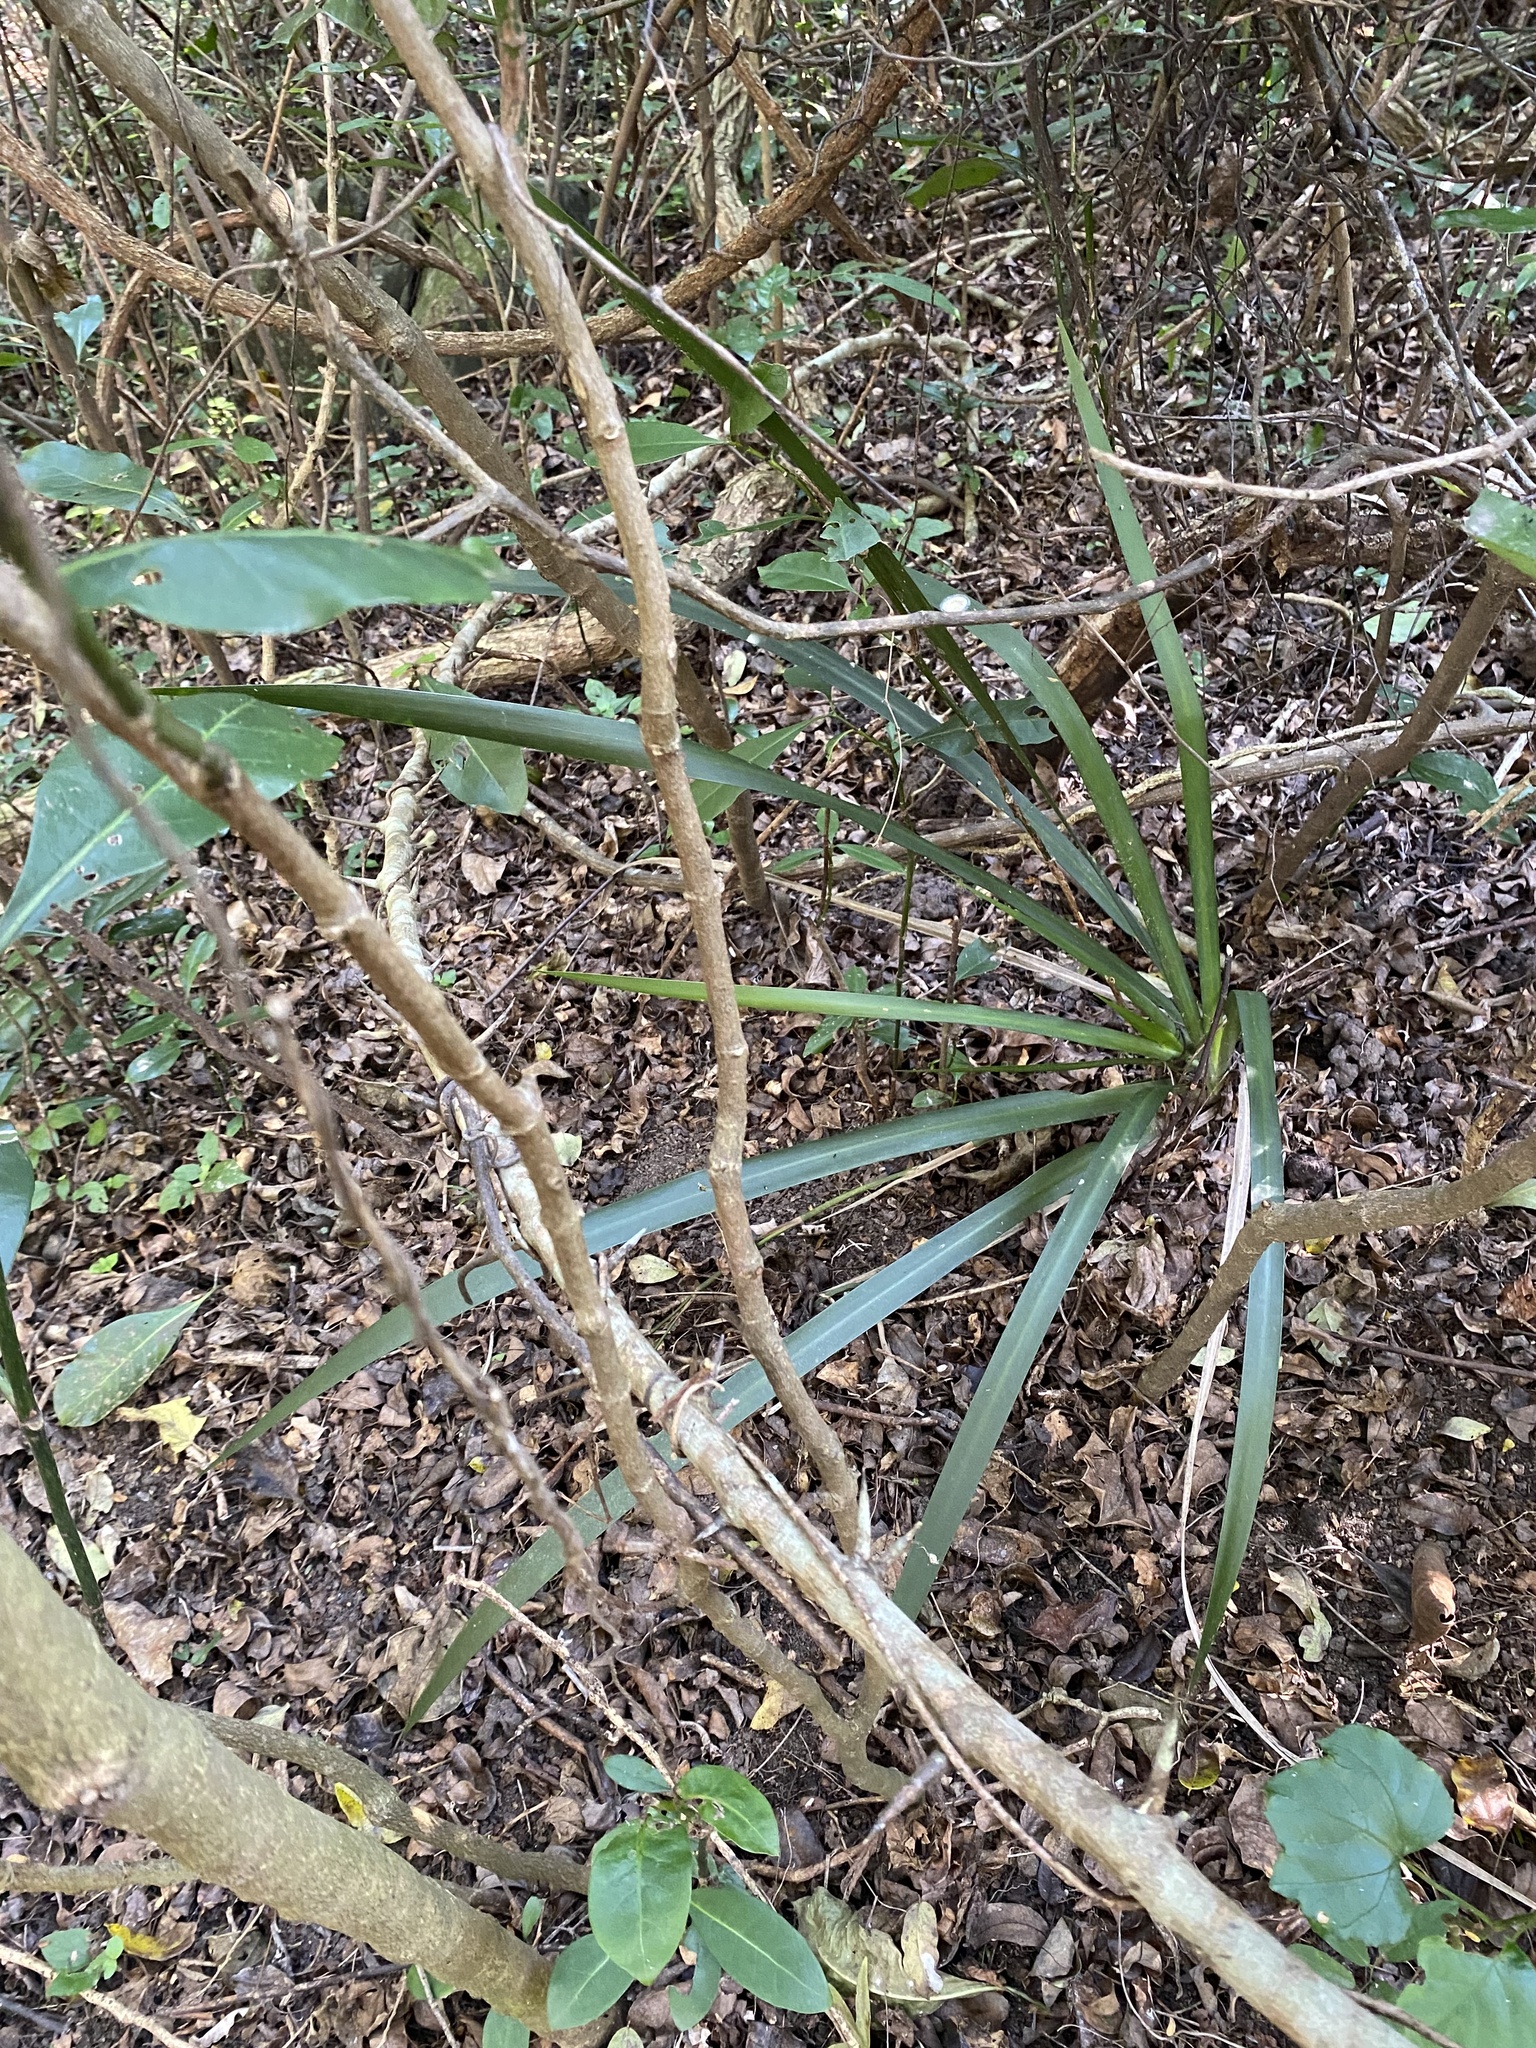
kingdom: Plantae
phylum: Tracheophyta
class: Liliopsida
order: Asparagales
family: Iridaceae
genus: Dietes
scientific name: Dietes iridioides
